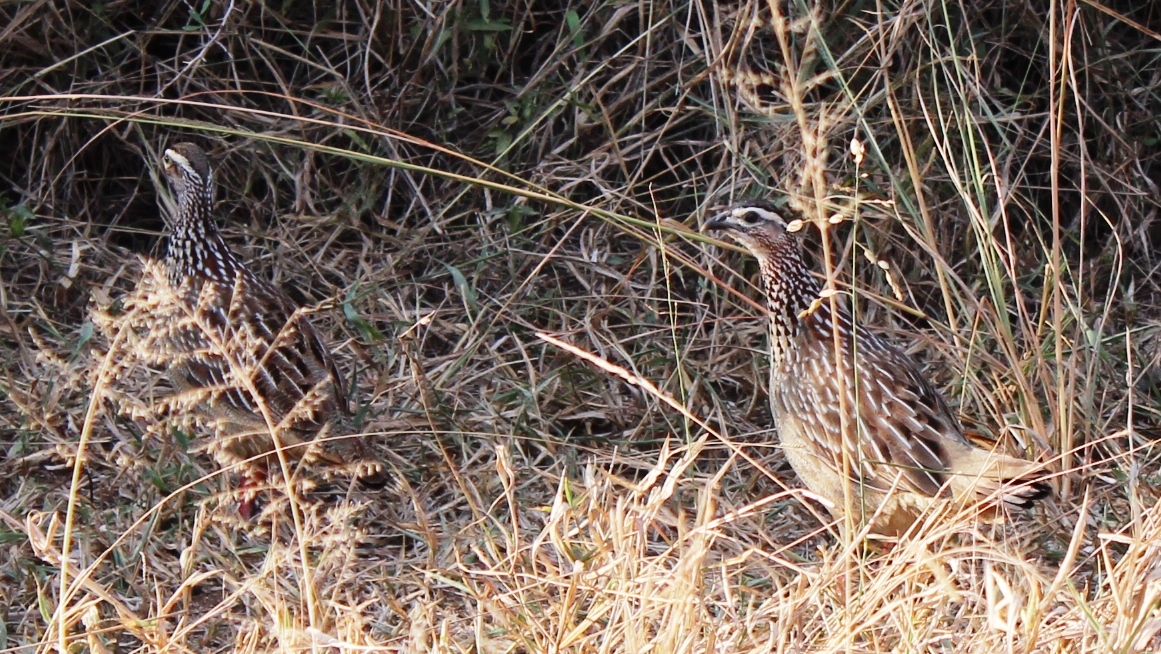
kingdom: Animalia
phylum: Chordata
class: Aves
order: Galliformes
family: Phasianidae
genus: Ortygornis
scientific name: Ortygornis sephaena
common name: Crested francolin
